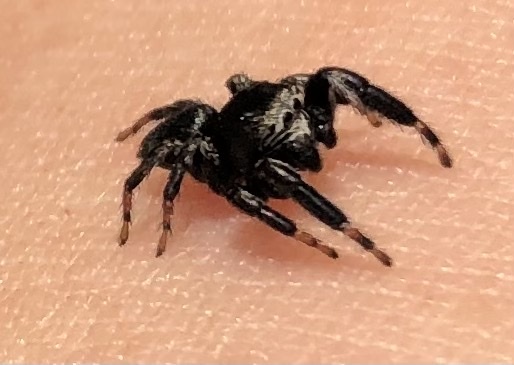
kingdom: Animalia
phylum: Arthropoda
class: Arachnida
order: Araneae
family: Salticidae
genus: Evarcha
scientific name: Evarcha arcuata
